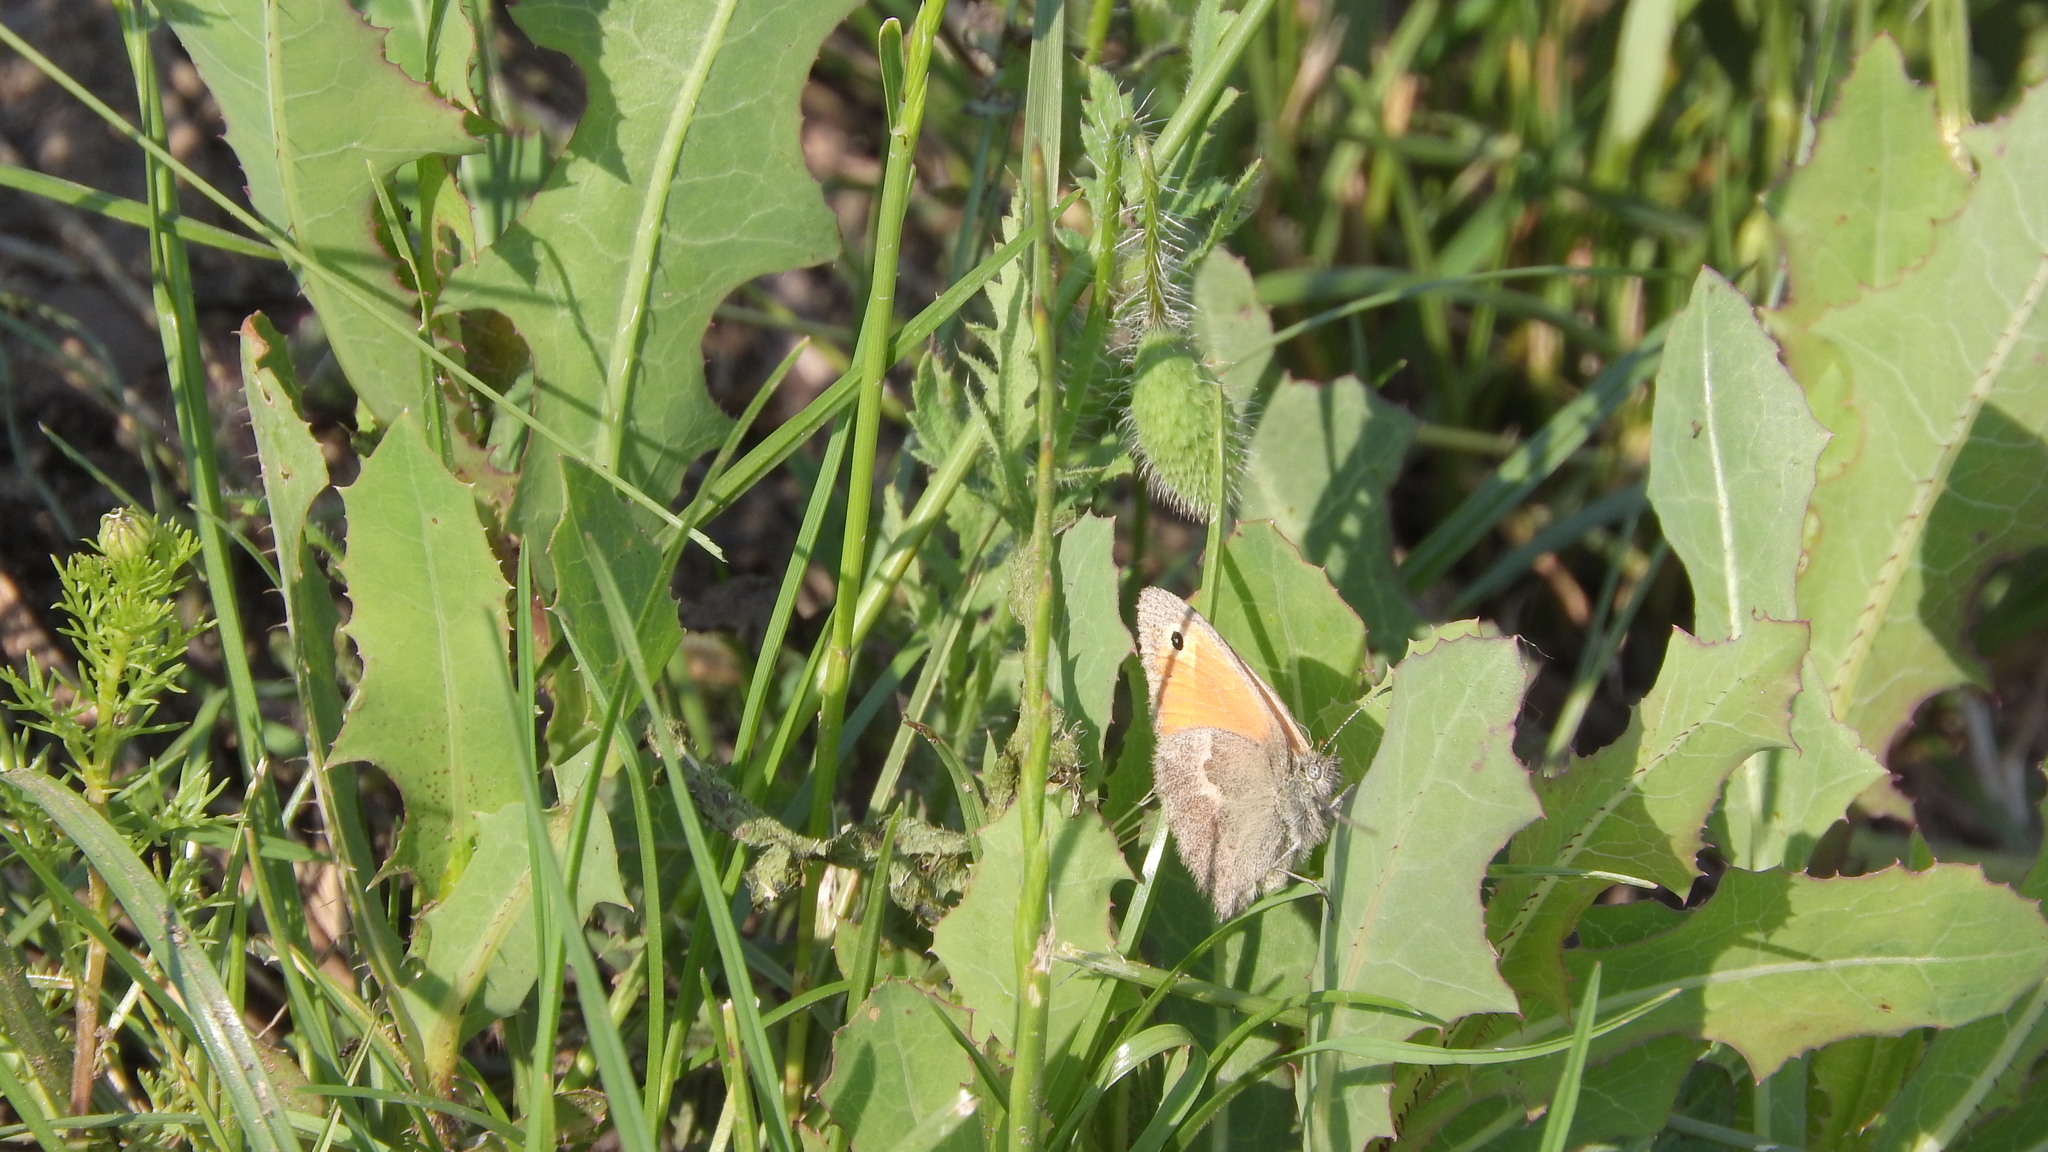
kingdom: Animalia
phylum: Arthropoda
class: Insecta
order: Lepidoptera
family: Nymphalidae
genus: Coenonympha
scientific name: Coenonympha pamphilus
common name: Small heath
